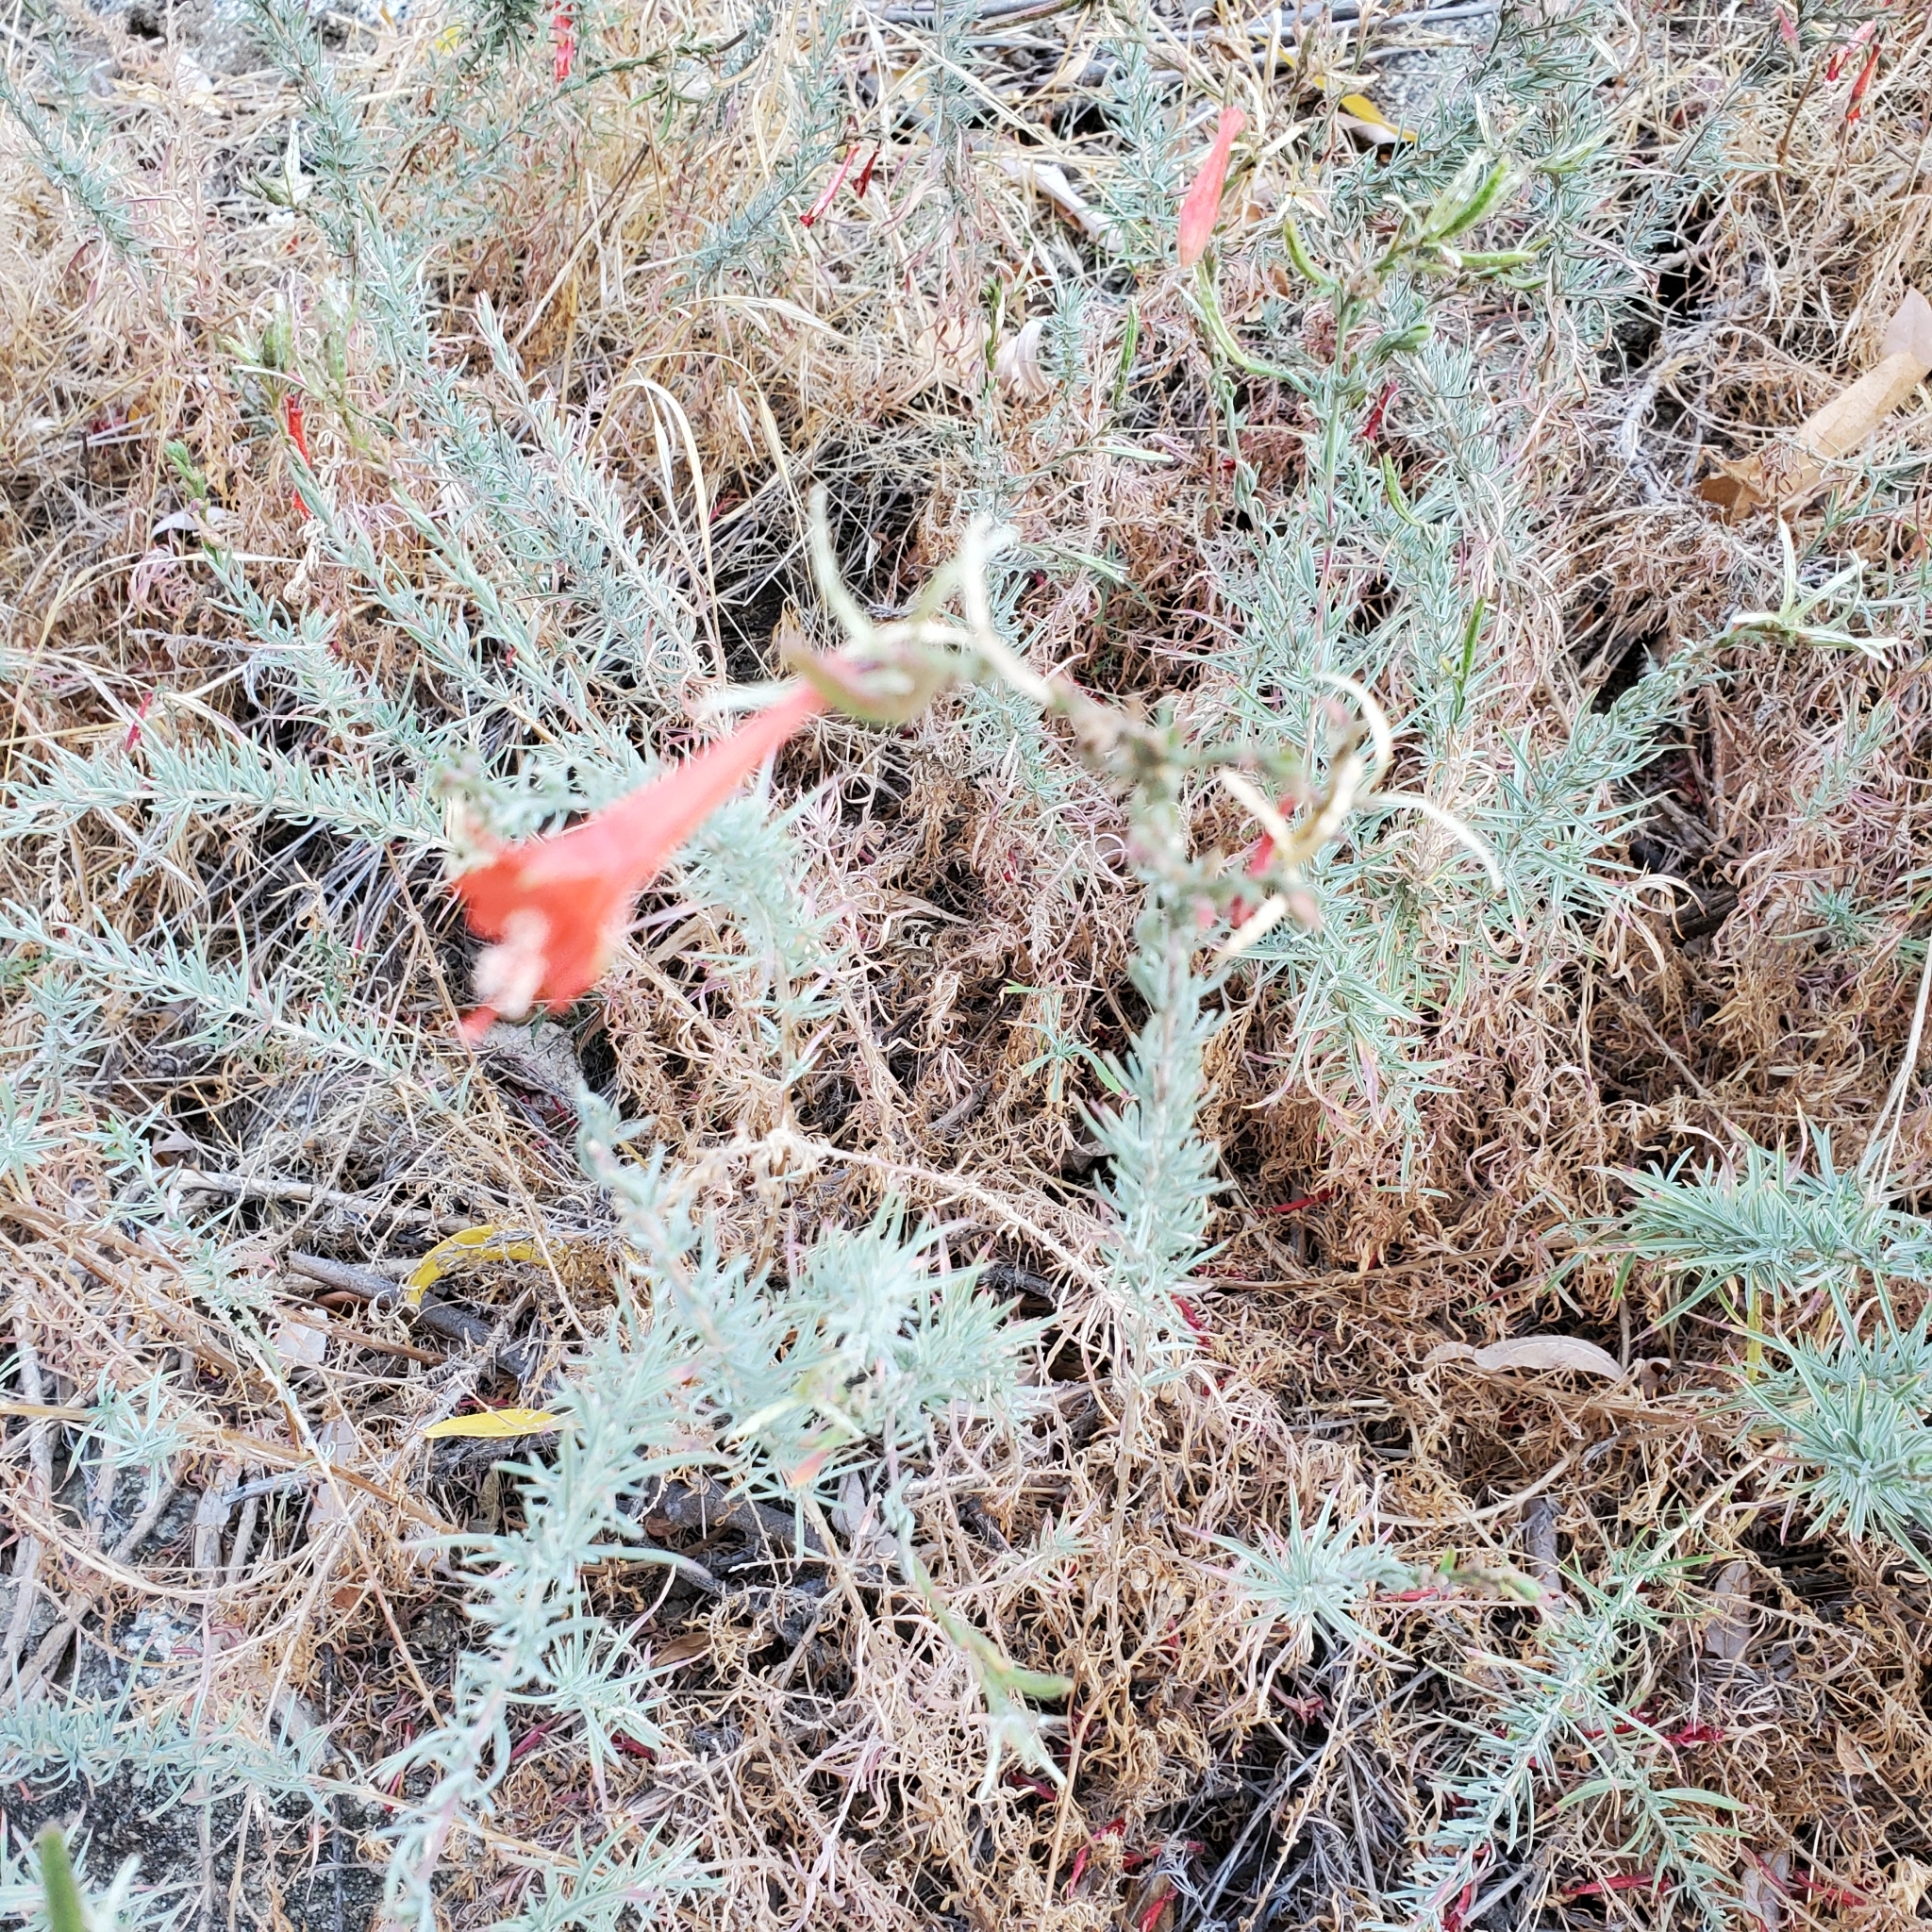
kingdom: Plantae
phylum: Tracheophyta
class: Magnoliopsida
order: Myrtales
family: Onagraceae
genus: Epilobium
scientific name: Epilobium canum
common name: California-fuchsia
